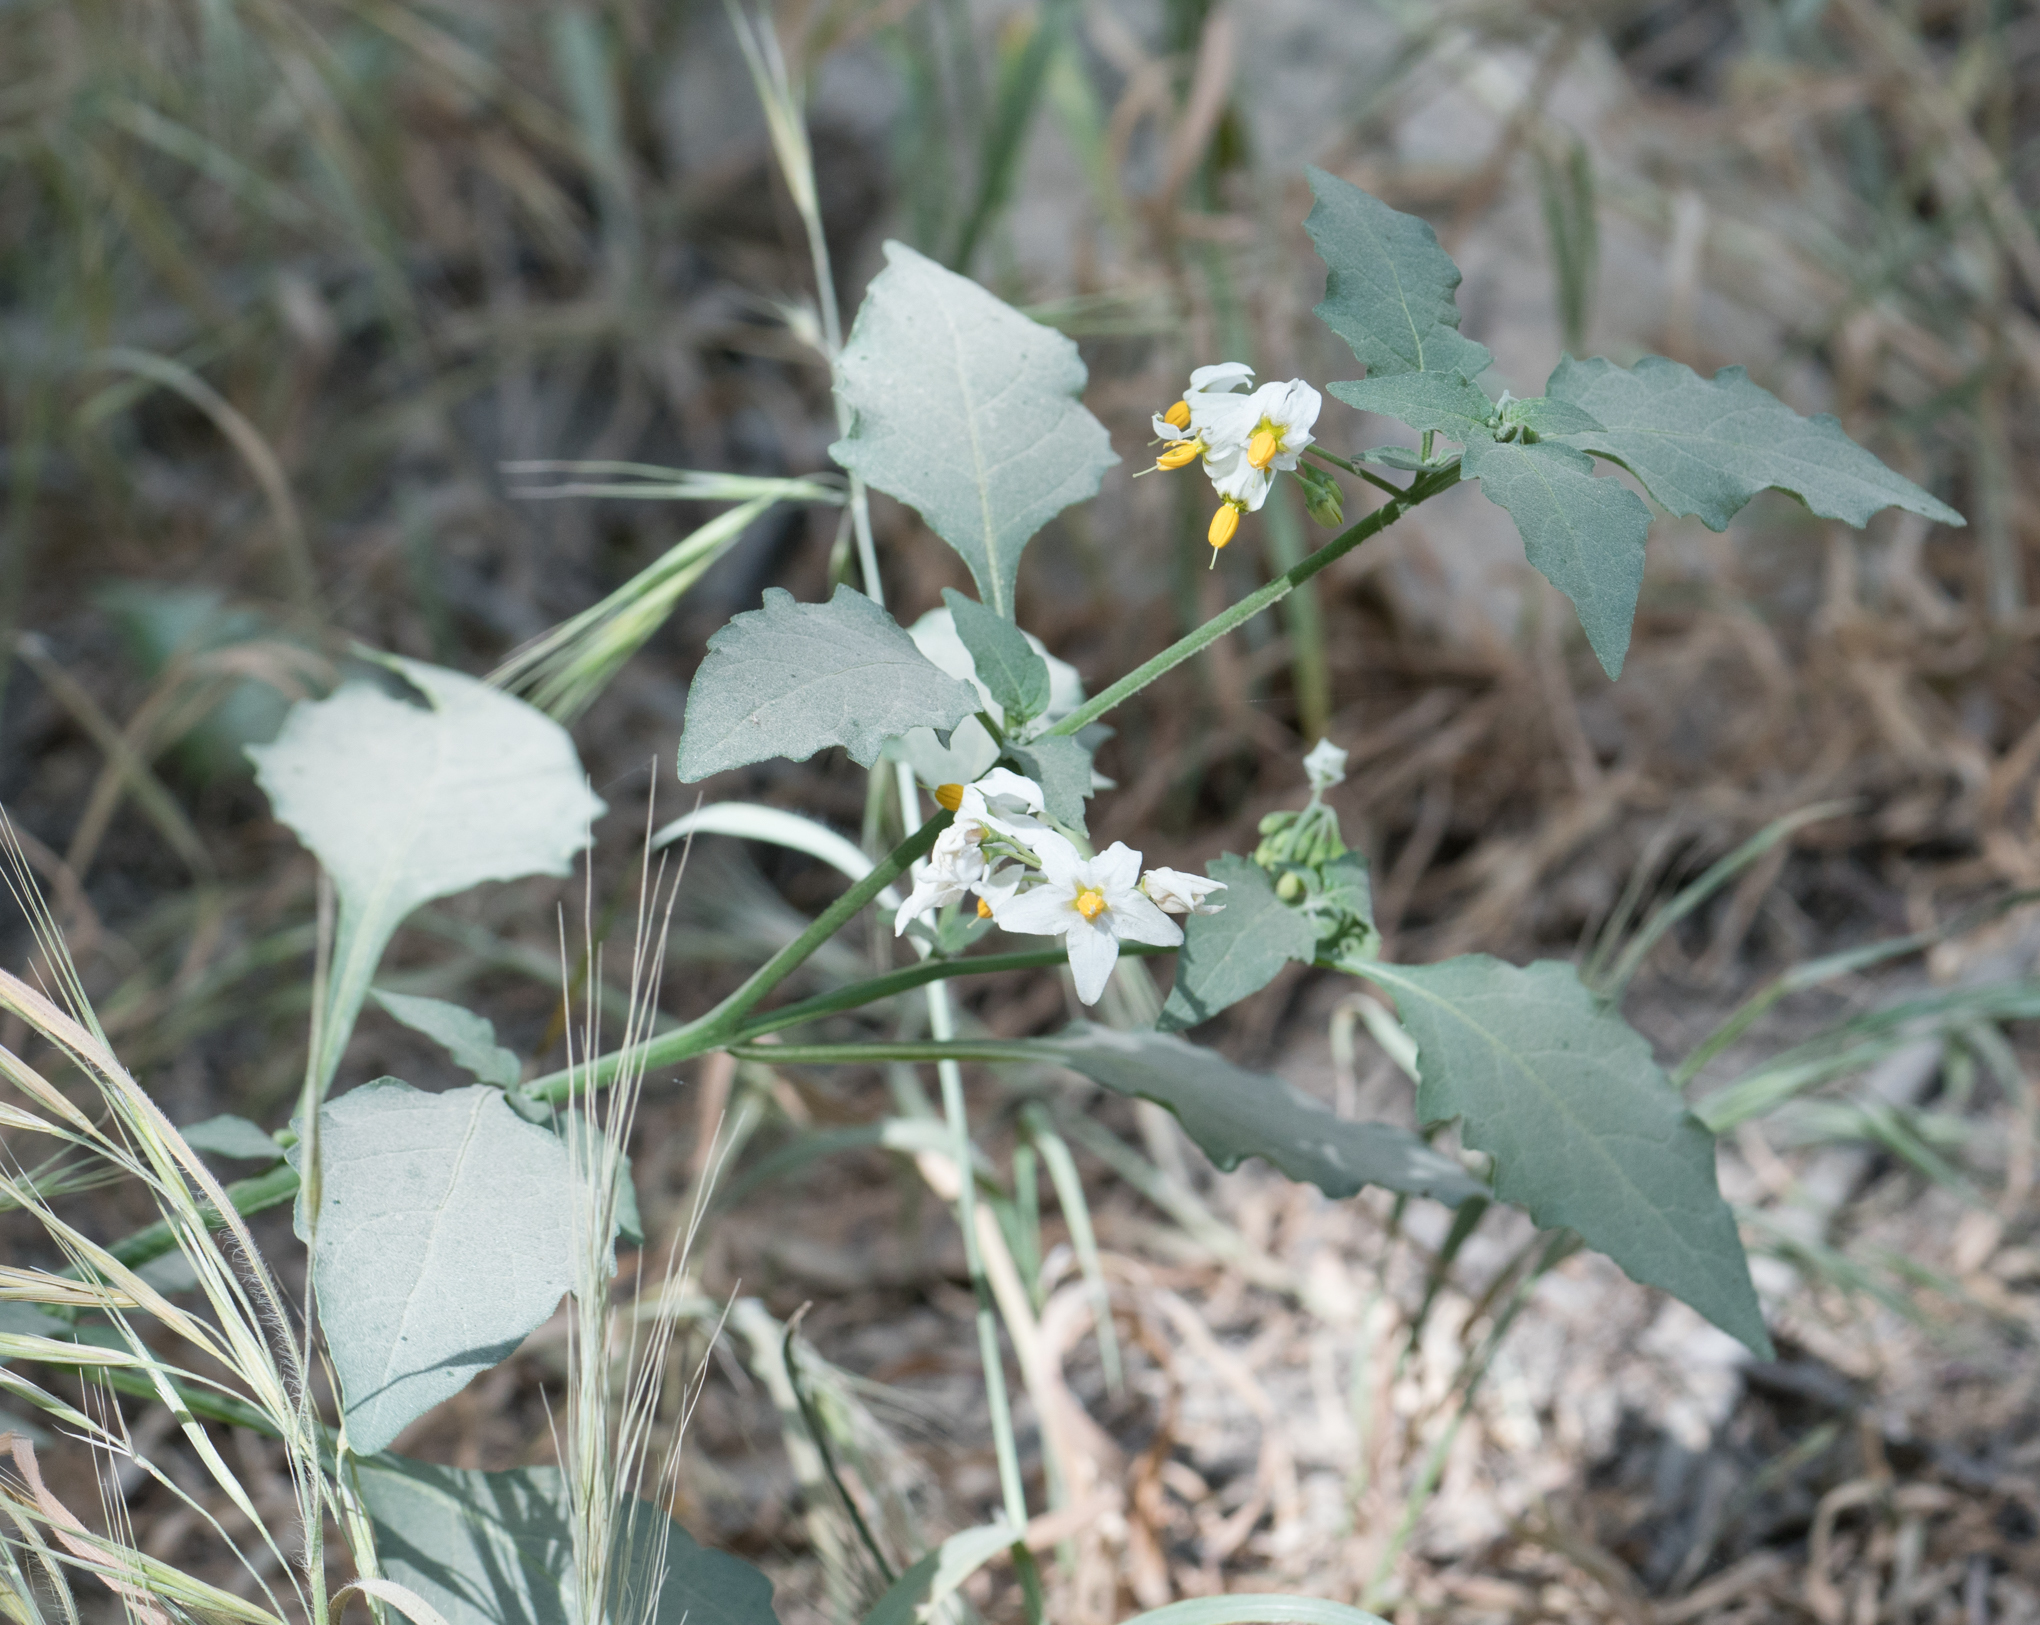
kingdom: Plantae
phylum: Tracheophyta
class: Magnoliopsida
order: Solanales
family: Solanaceae
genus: Solanum
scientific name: Solanum douglasii
